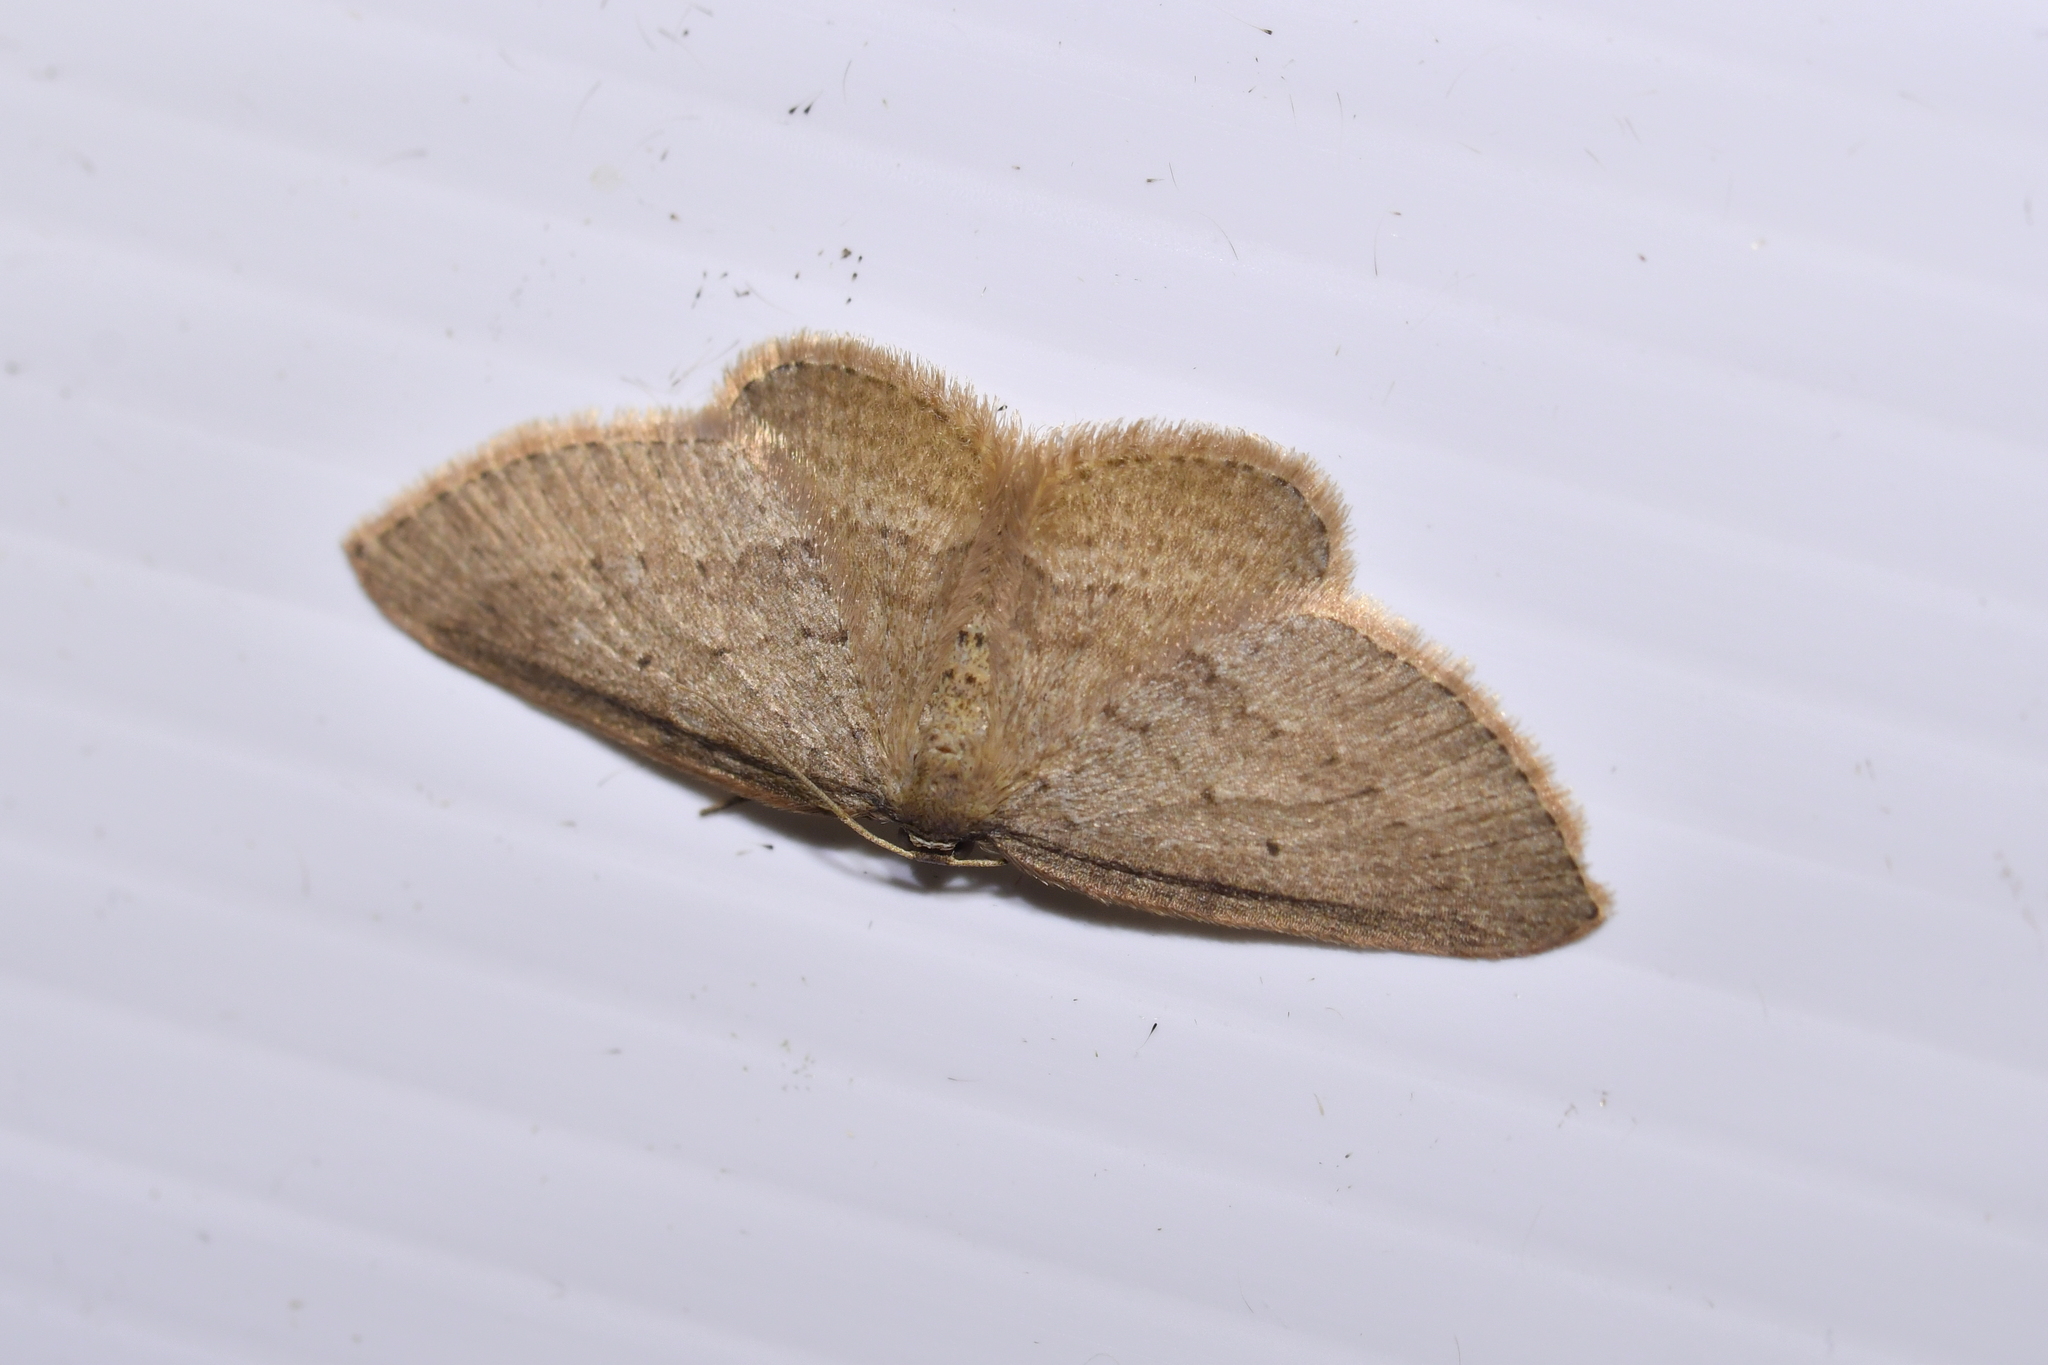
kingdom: Animalia
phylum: Arthropoda
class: Insecta
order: Lepidoptera
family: Geometridae
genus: Poecilasthena
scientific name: Poecilasthena schistaria
